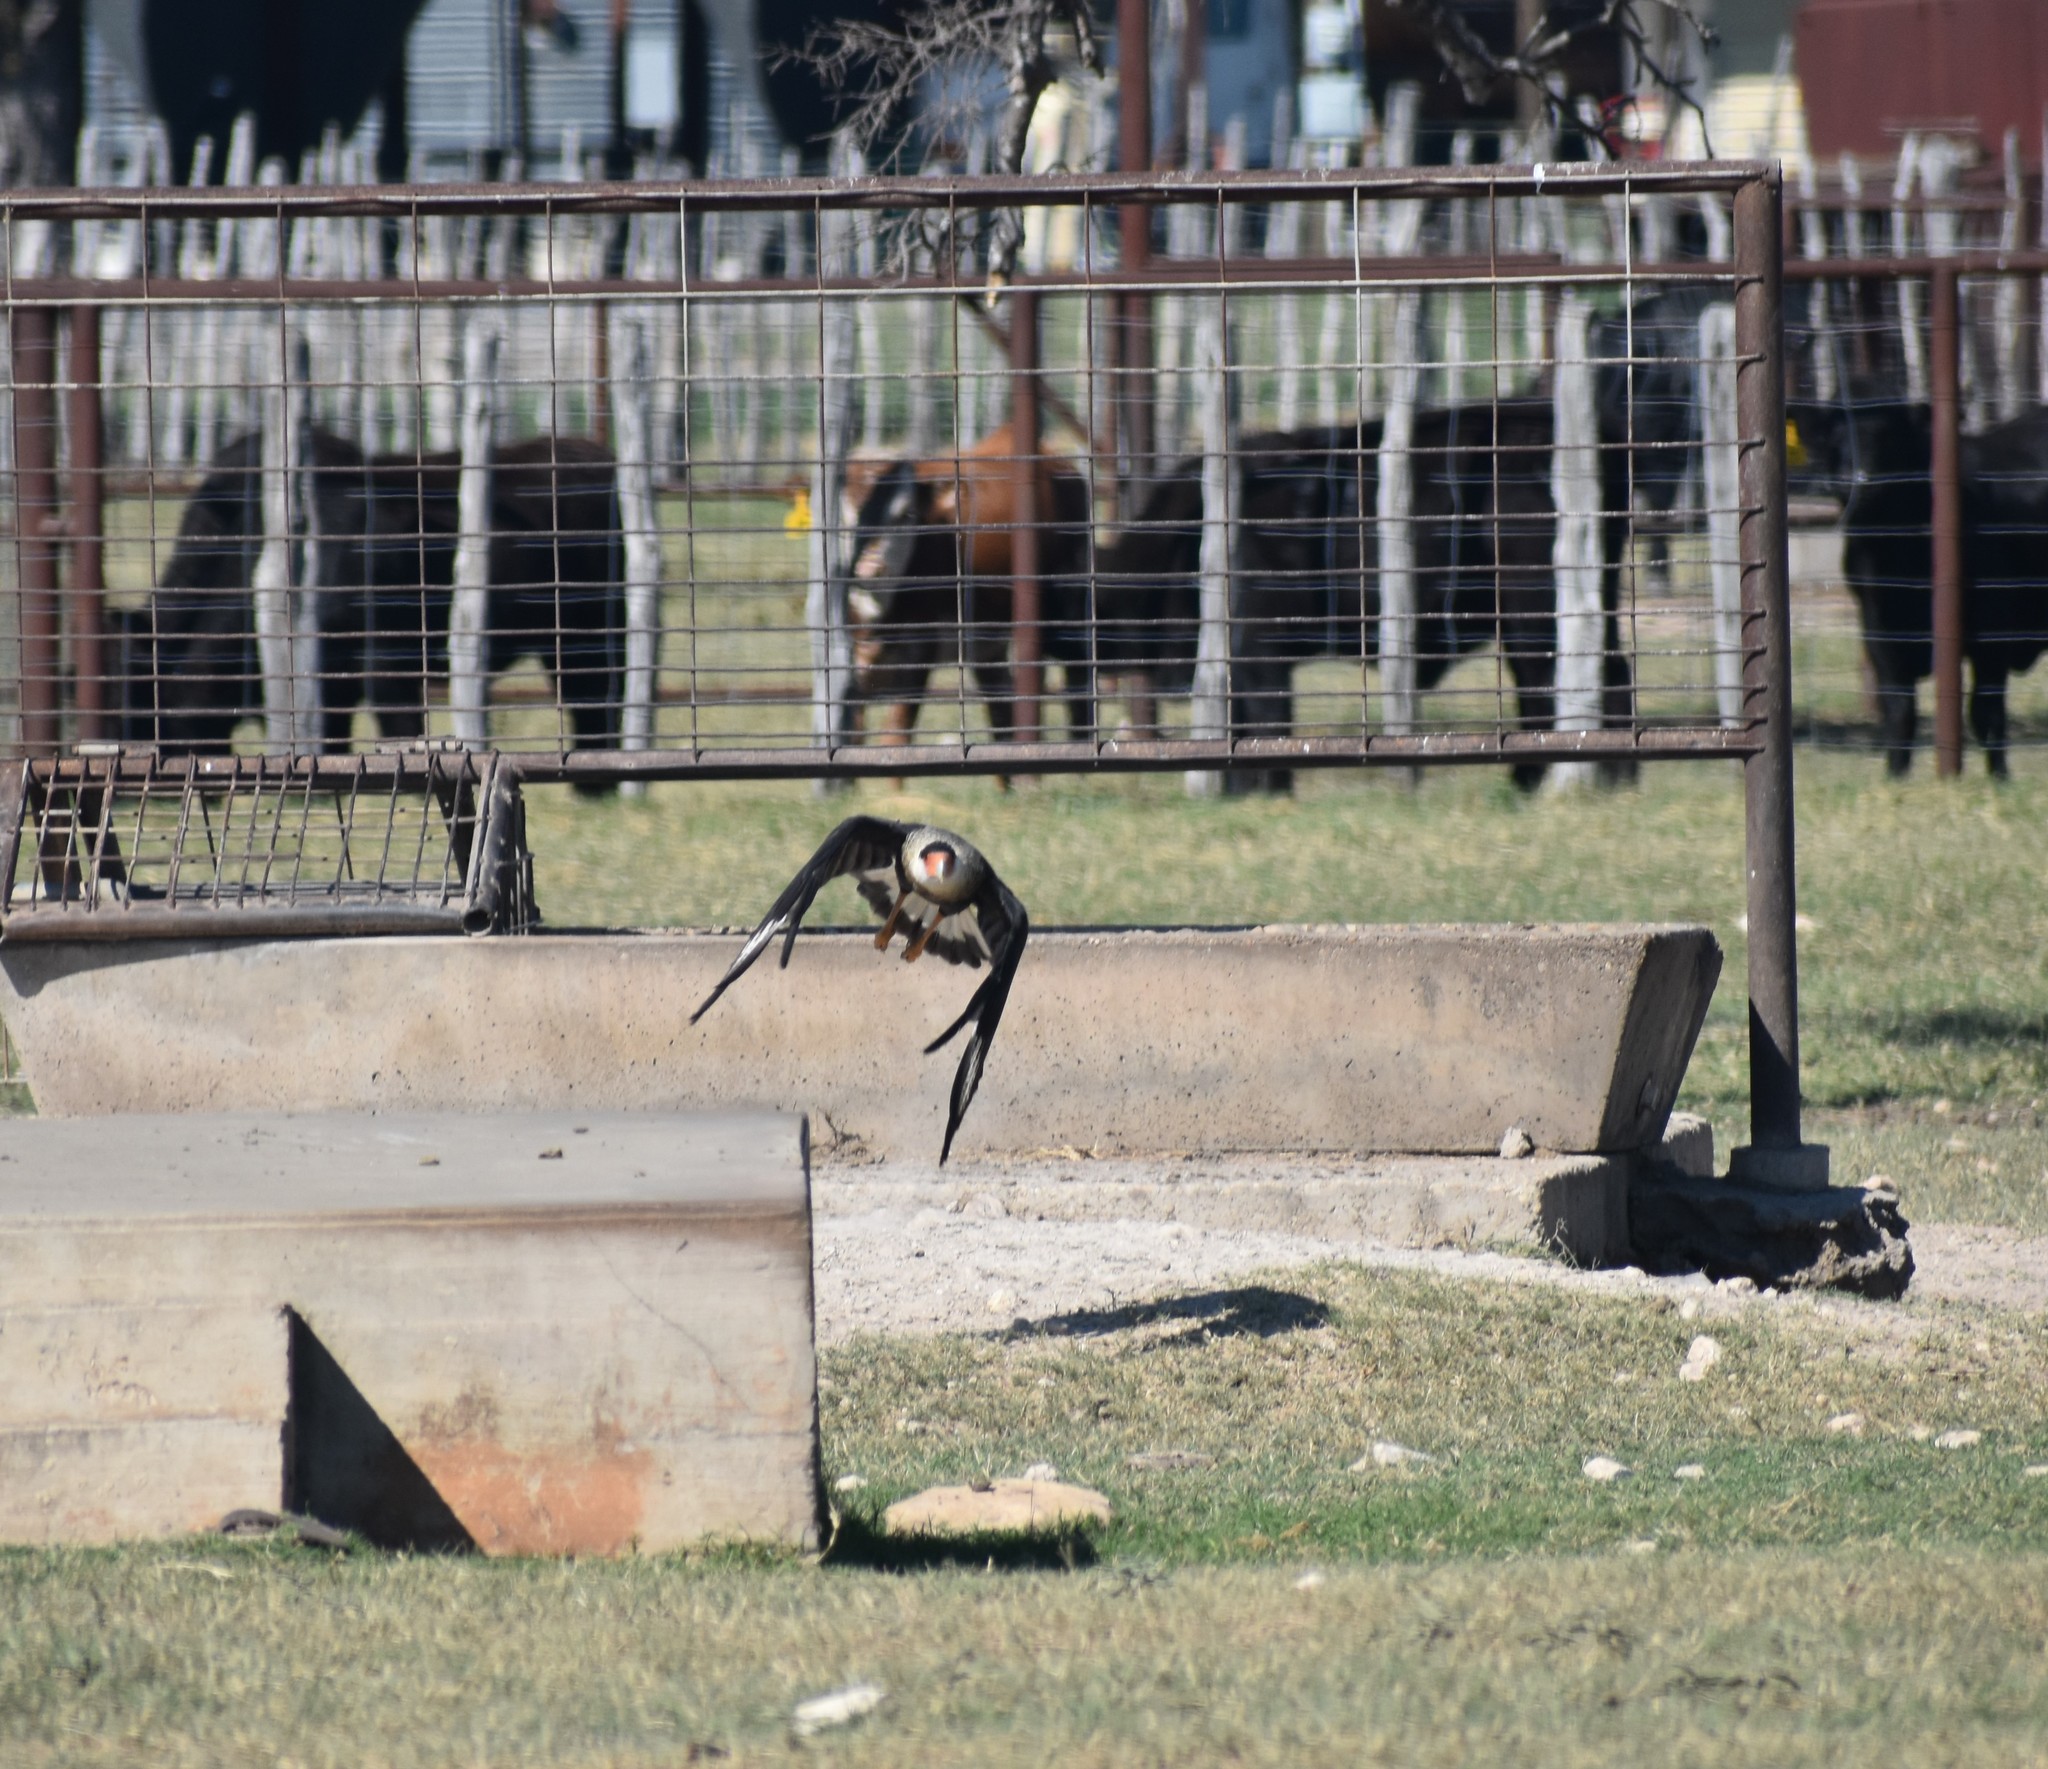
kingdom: Animalia
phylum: Chordata
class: Aves
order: Falconiformes
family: Falconidae
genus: Caracara
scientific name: Caracara plancus
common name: Southern caracara
